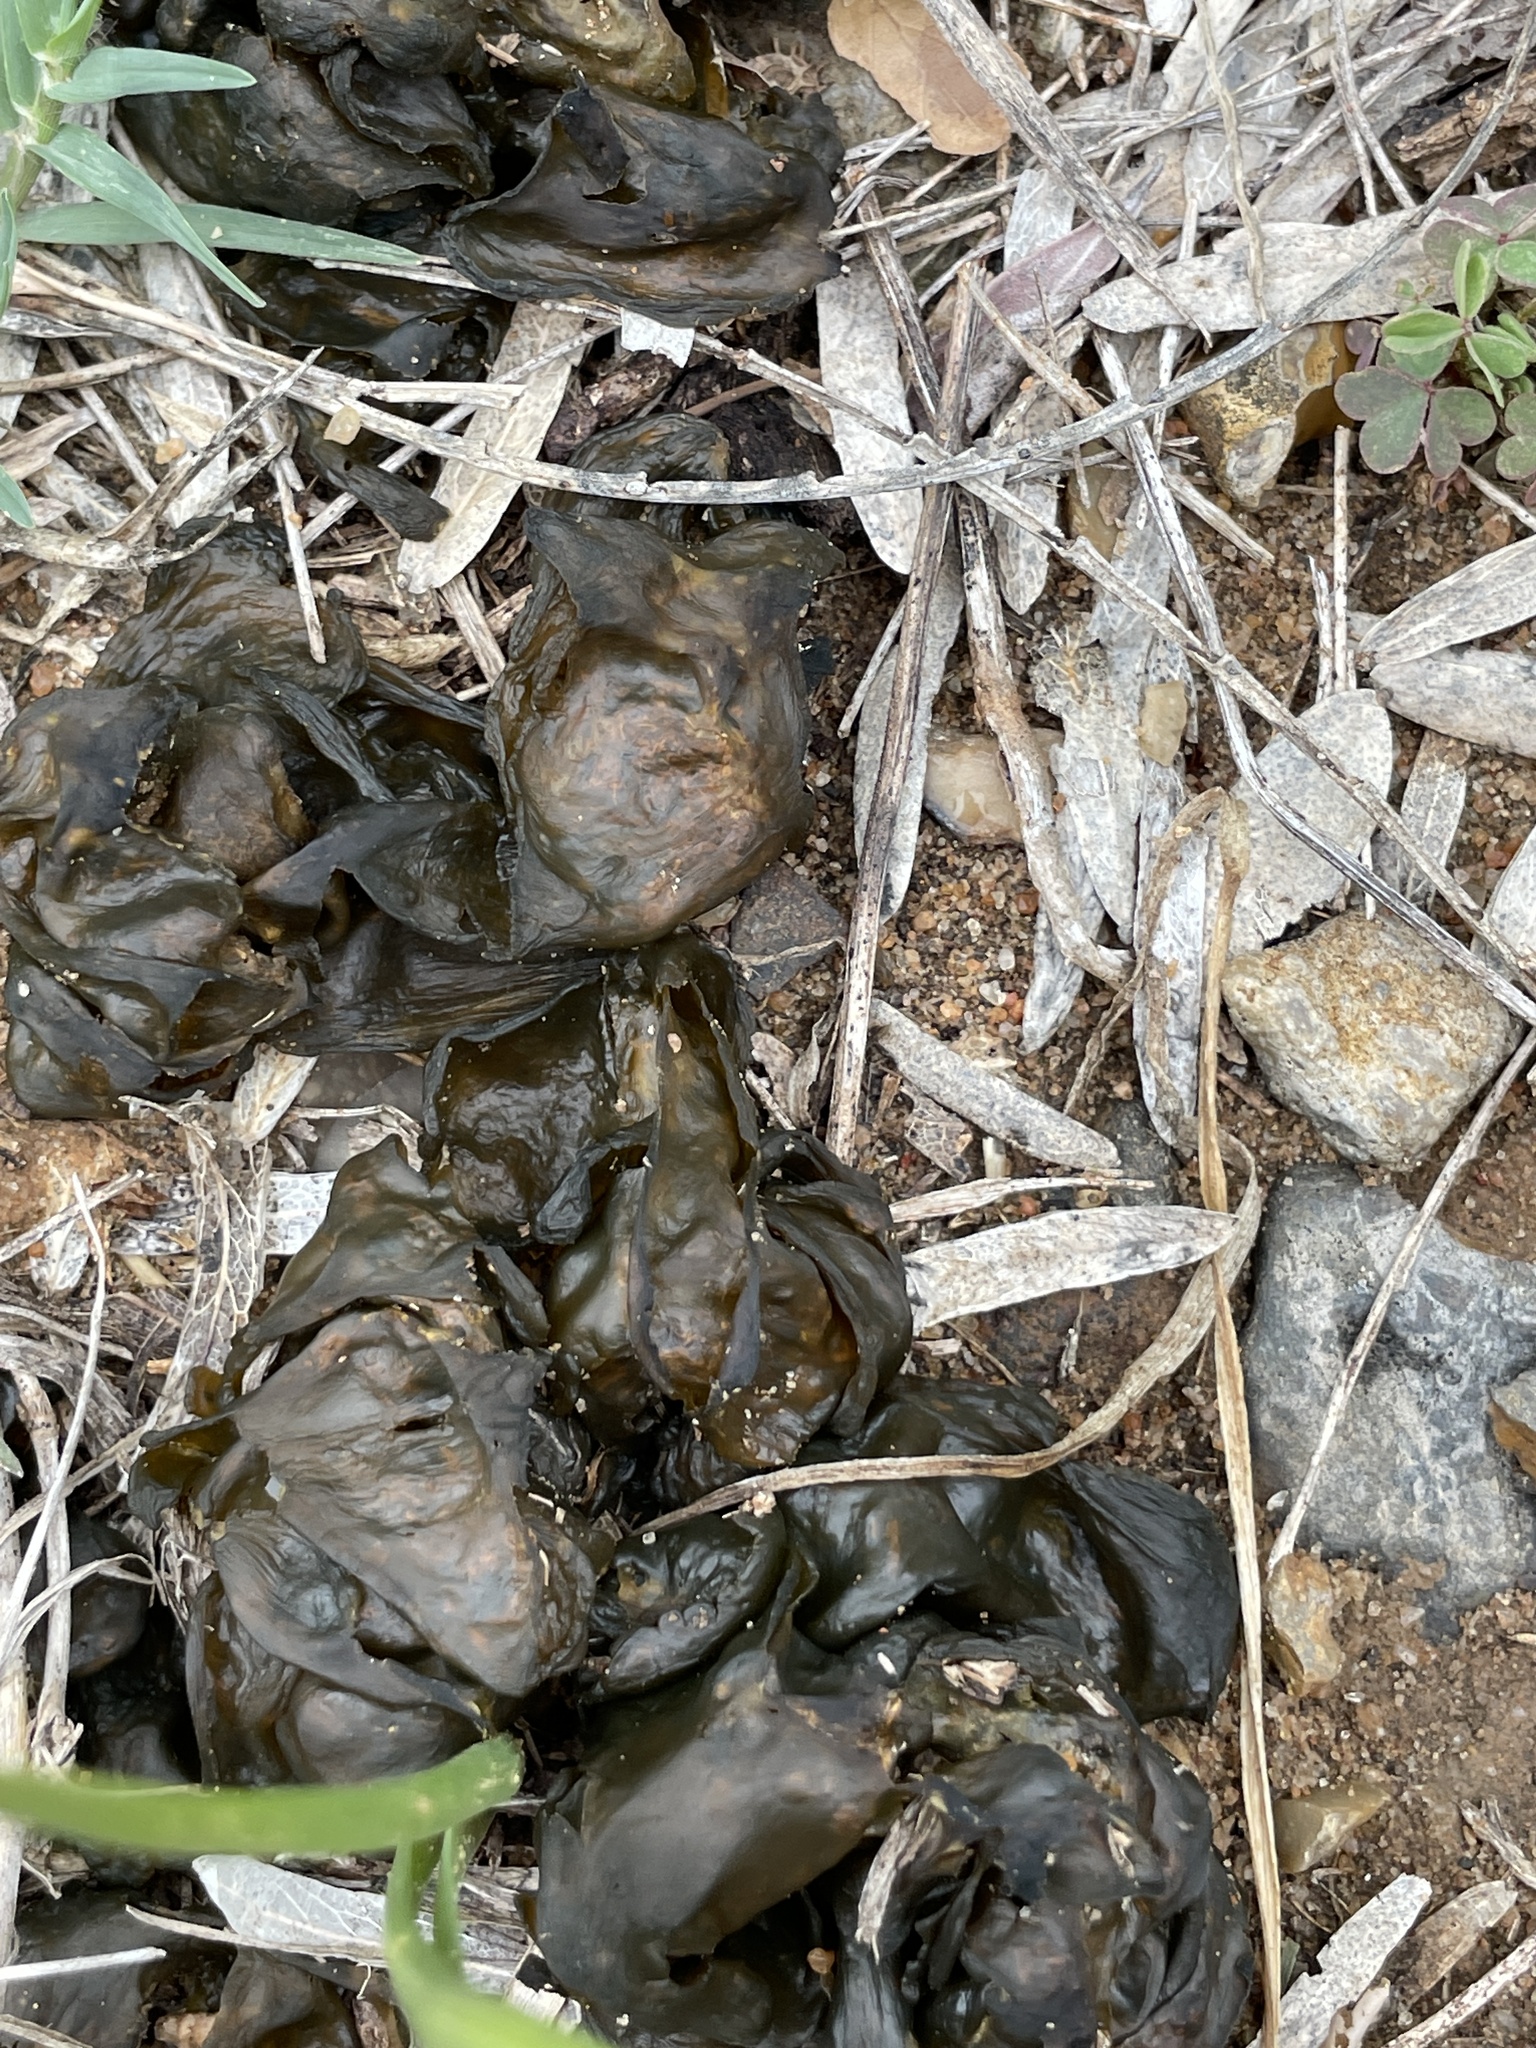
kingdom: Bacteria
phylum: Cyanobacteria
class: Cyanobacteriia
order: Cyanobacteriales
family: Nostocaceae
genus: Nostoc
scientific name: Nostoc commune
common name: Star jelly
